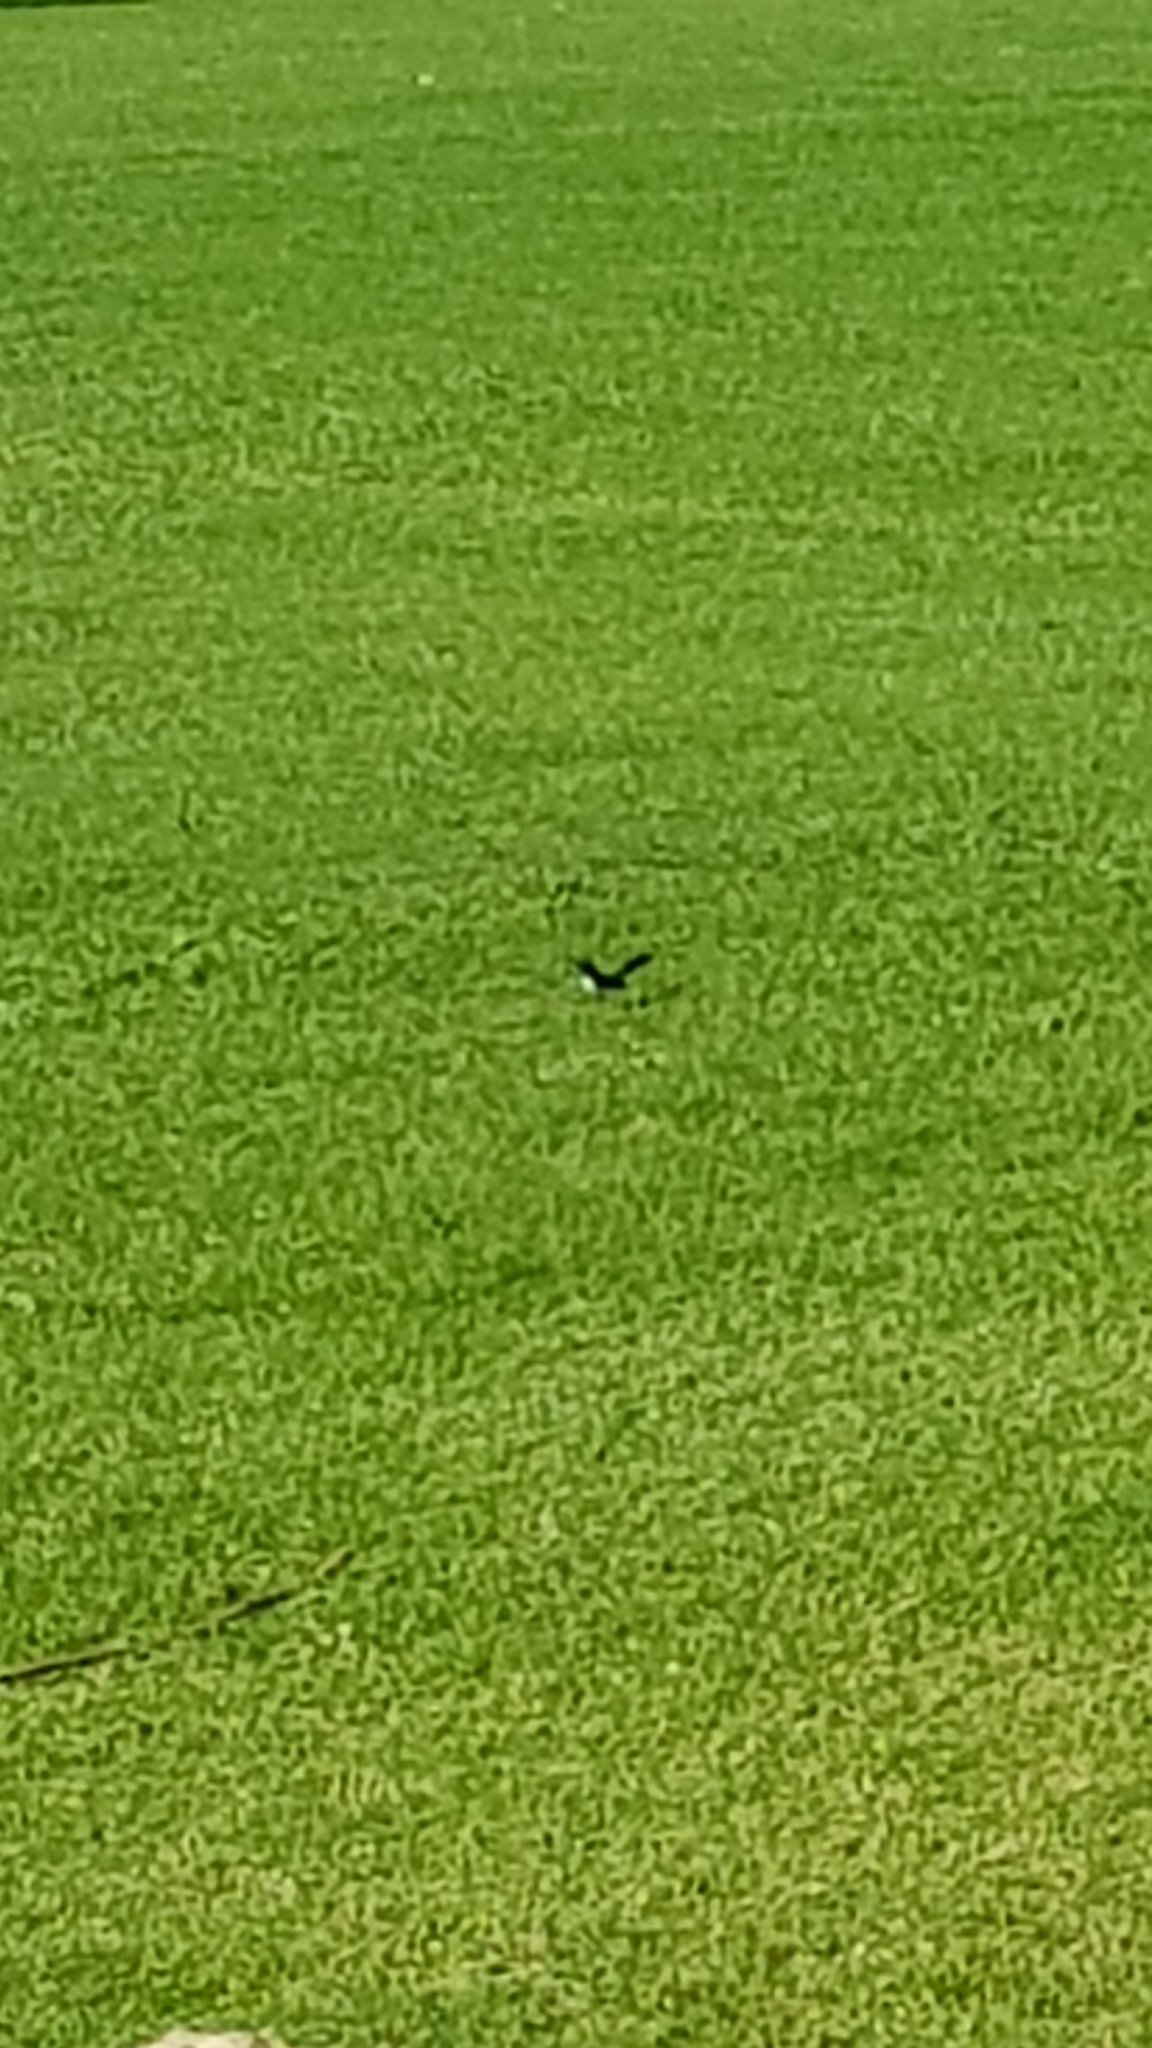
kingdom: Animalia
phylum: Chordata
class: Aves
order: Passeriformes
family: Rhipiduridae
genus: Rhipidura
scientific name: Rhipidura leucophrys
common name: Willie wagtail
